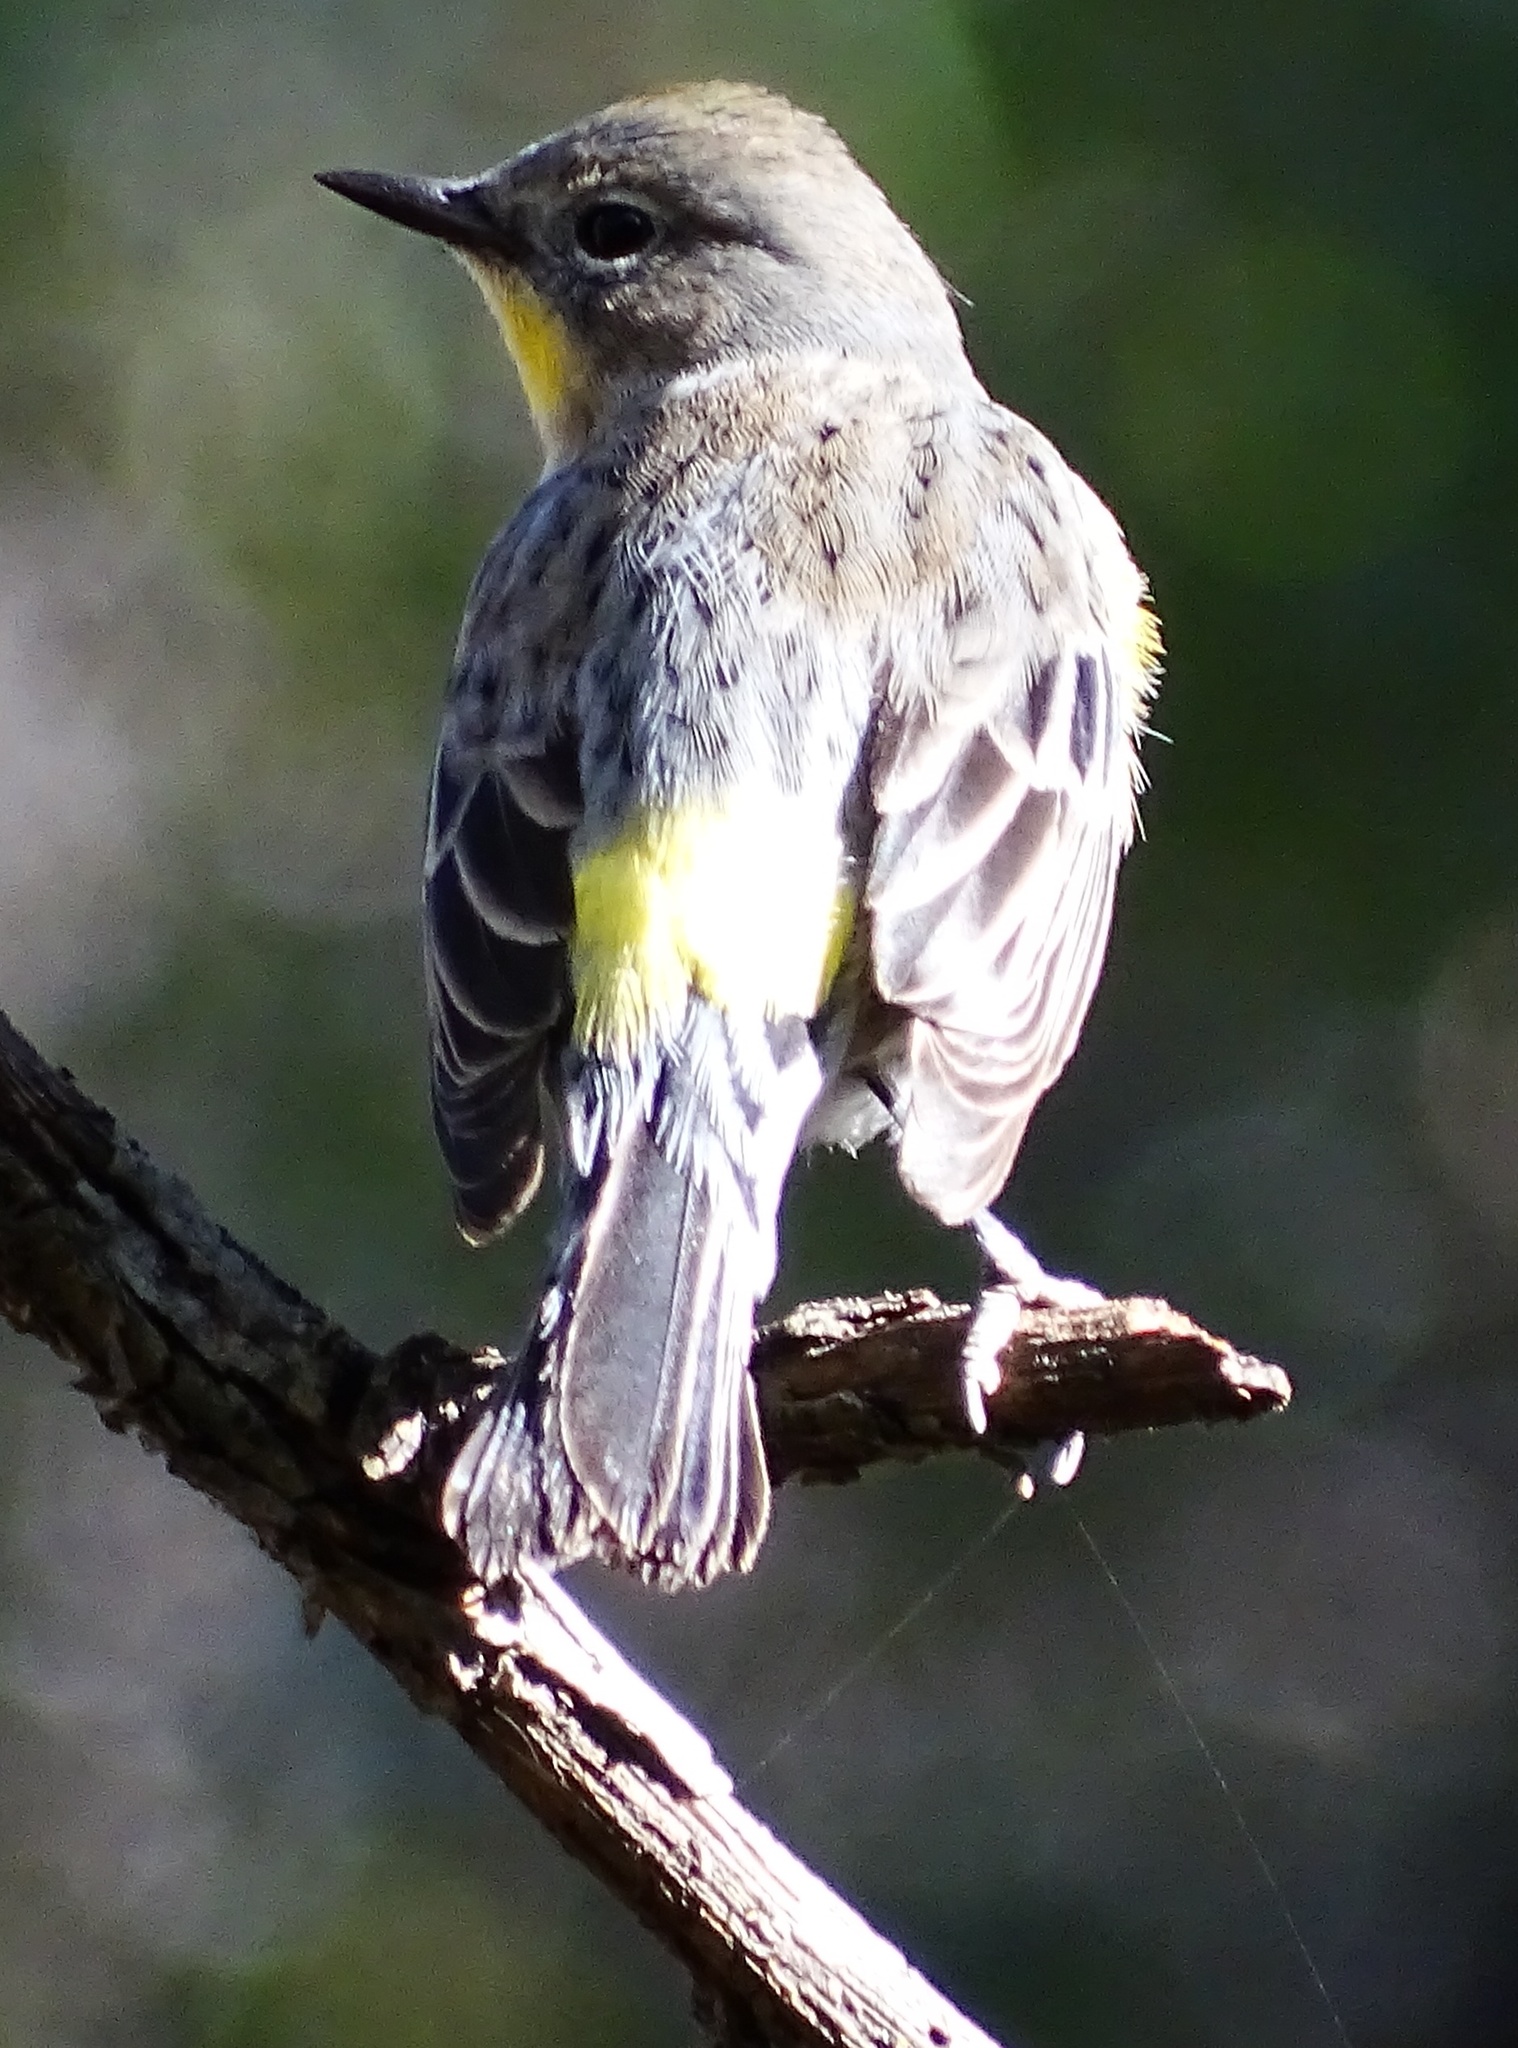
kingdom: Animalia
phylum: Chordata
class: Aves
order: Passeriformes
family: Parulidae
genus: Setophaga
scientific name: Setophaga auduboni
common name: Audubon's warbler
